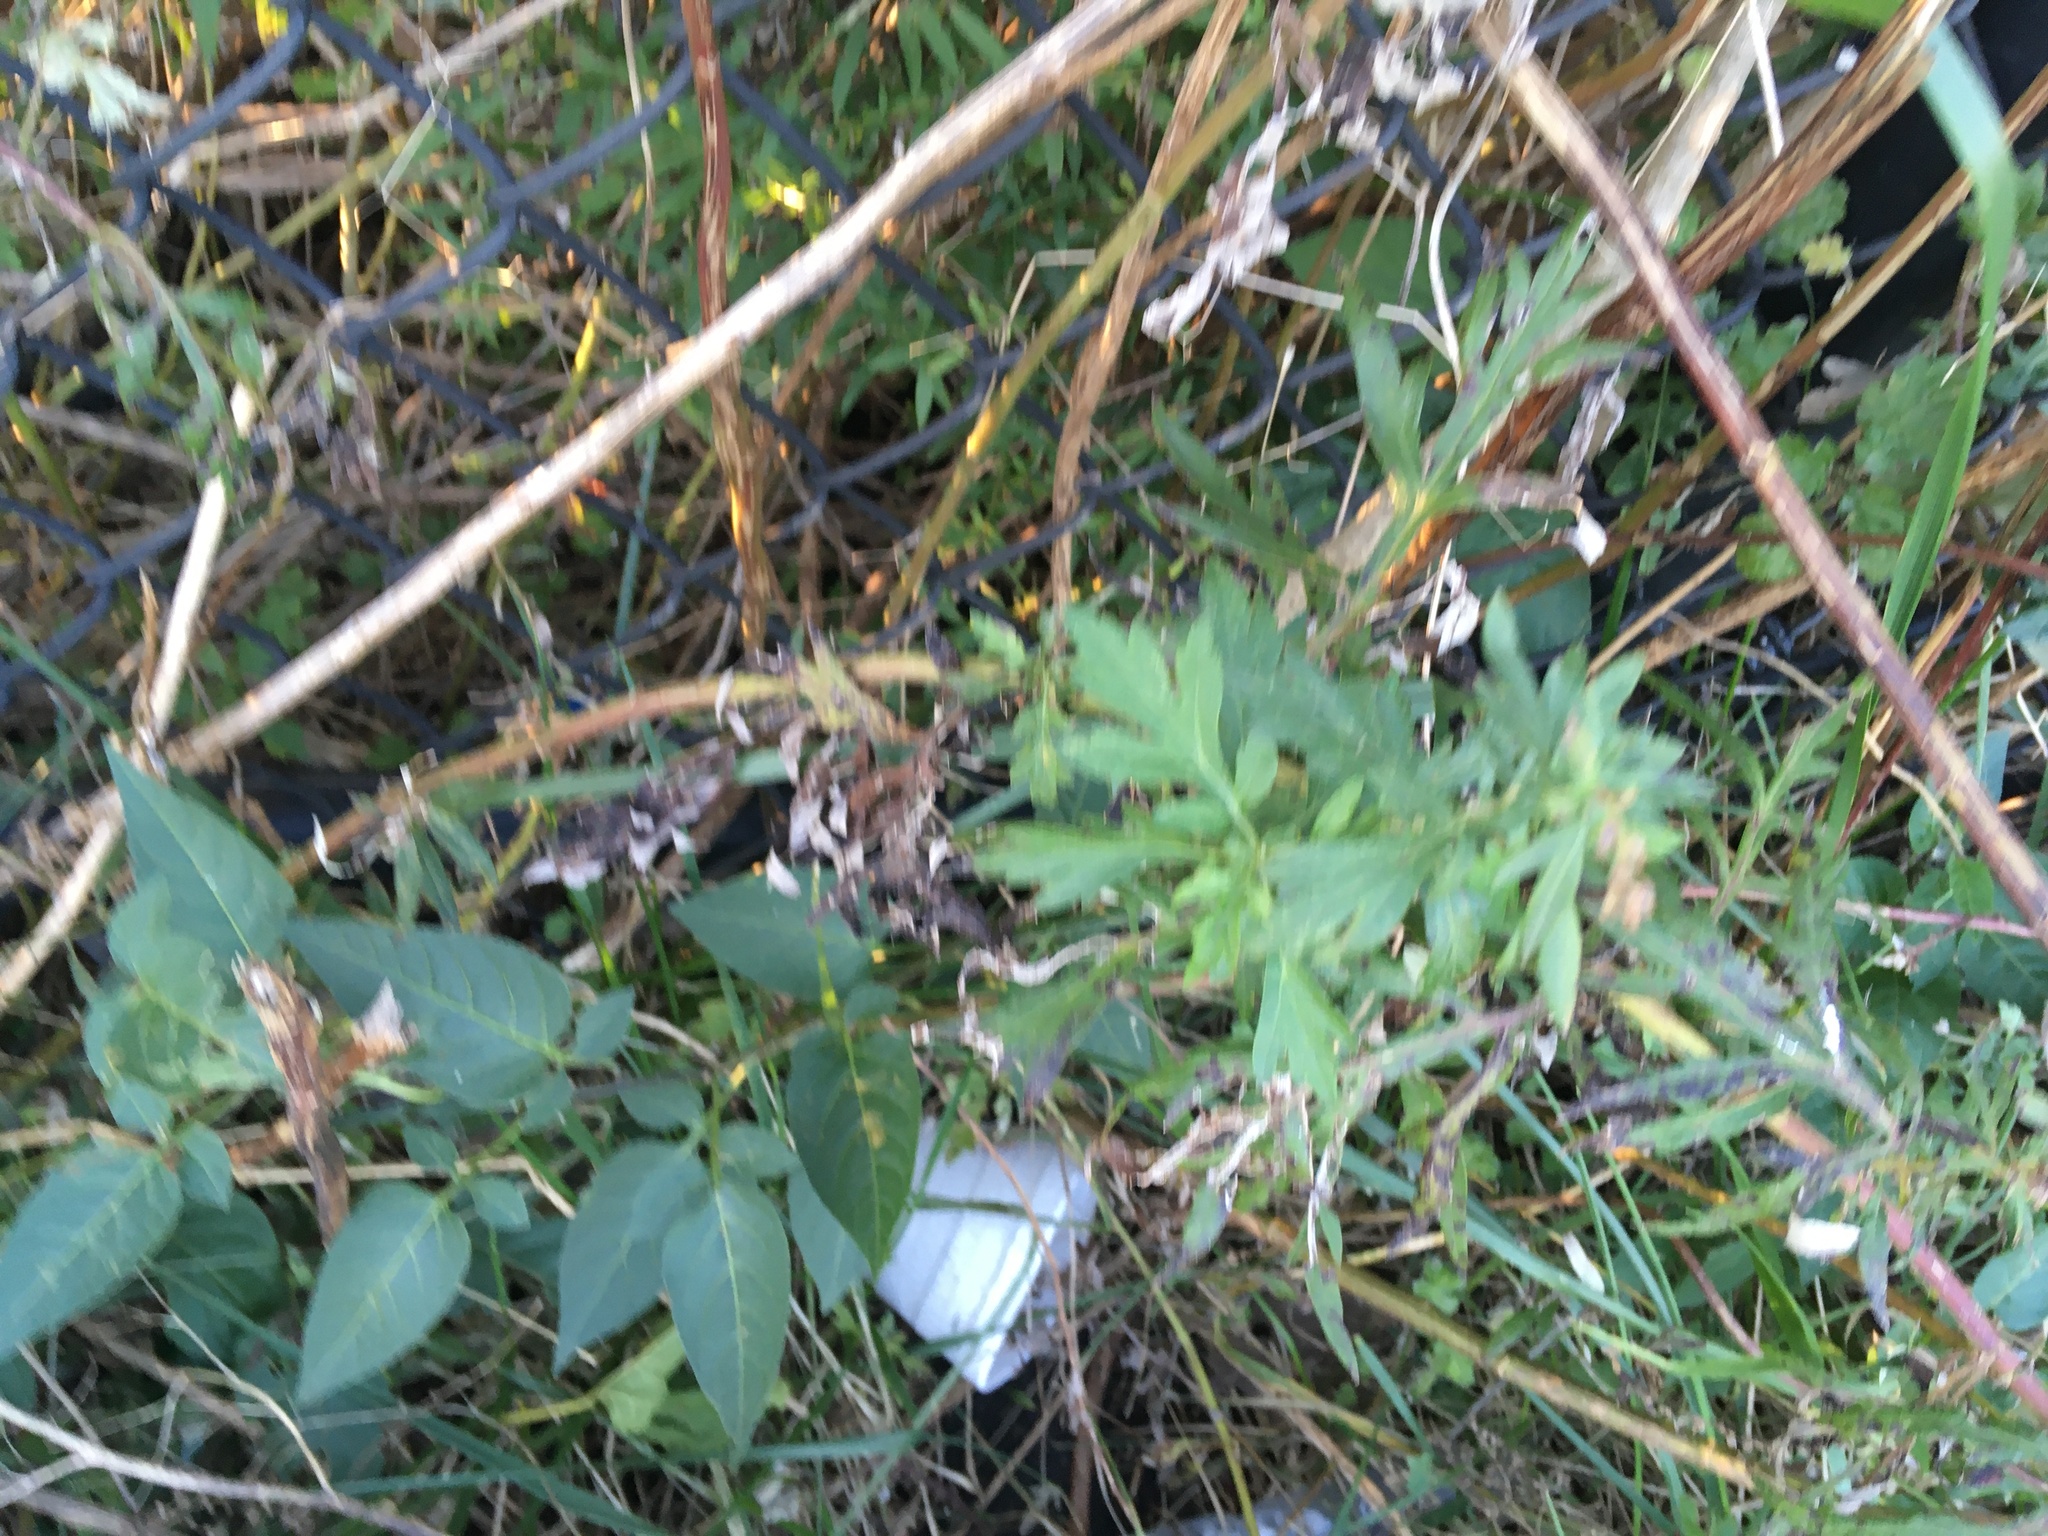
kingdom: Plantae
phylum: Tracheophyta
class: Magnoliopsida
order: Asterales
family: Asteraceae
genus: Artemisia
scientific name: Artemisia vulgaris
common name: Mugwort
